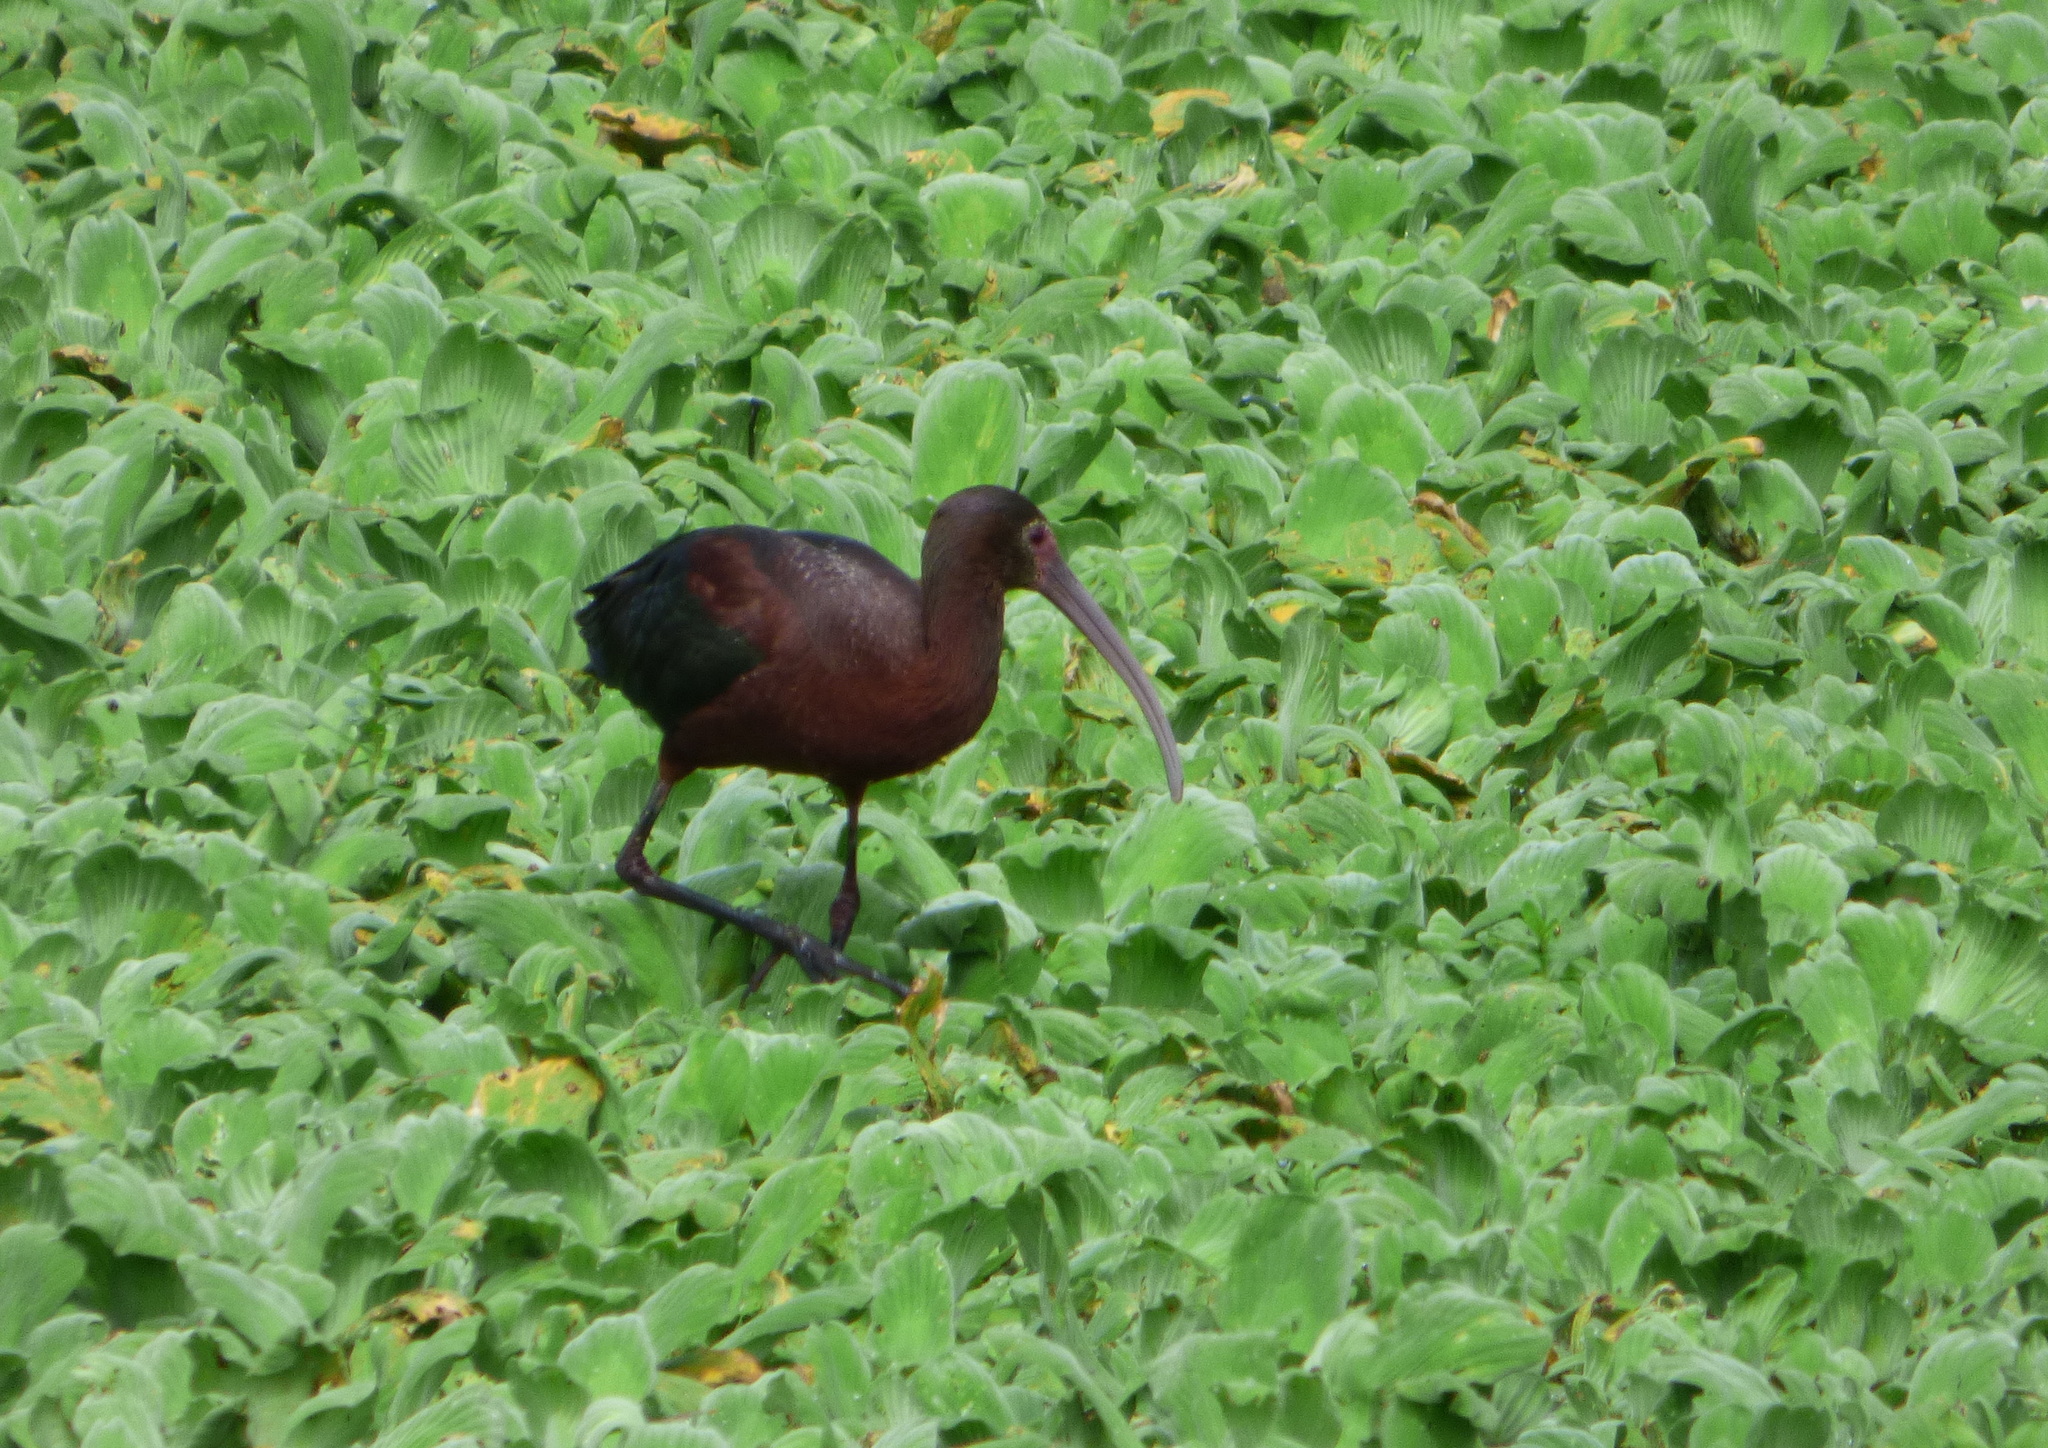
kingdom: Animalia
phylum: Chordata
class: Aves
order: Pelecaniformes
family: Threskiornithidae
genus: Plegadis
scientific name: Plegadis chihi
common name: White-faced ibis
